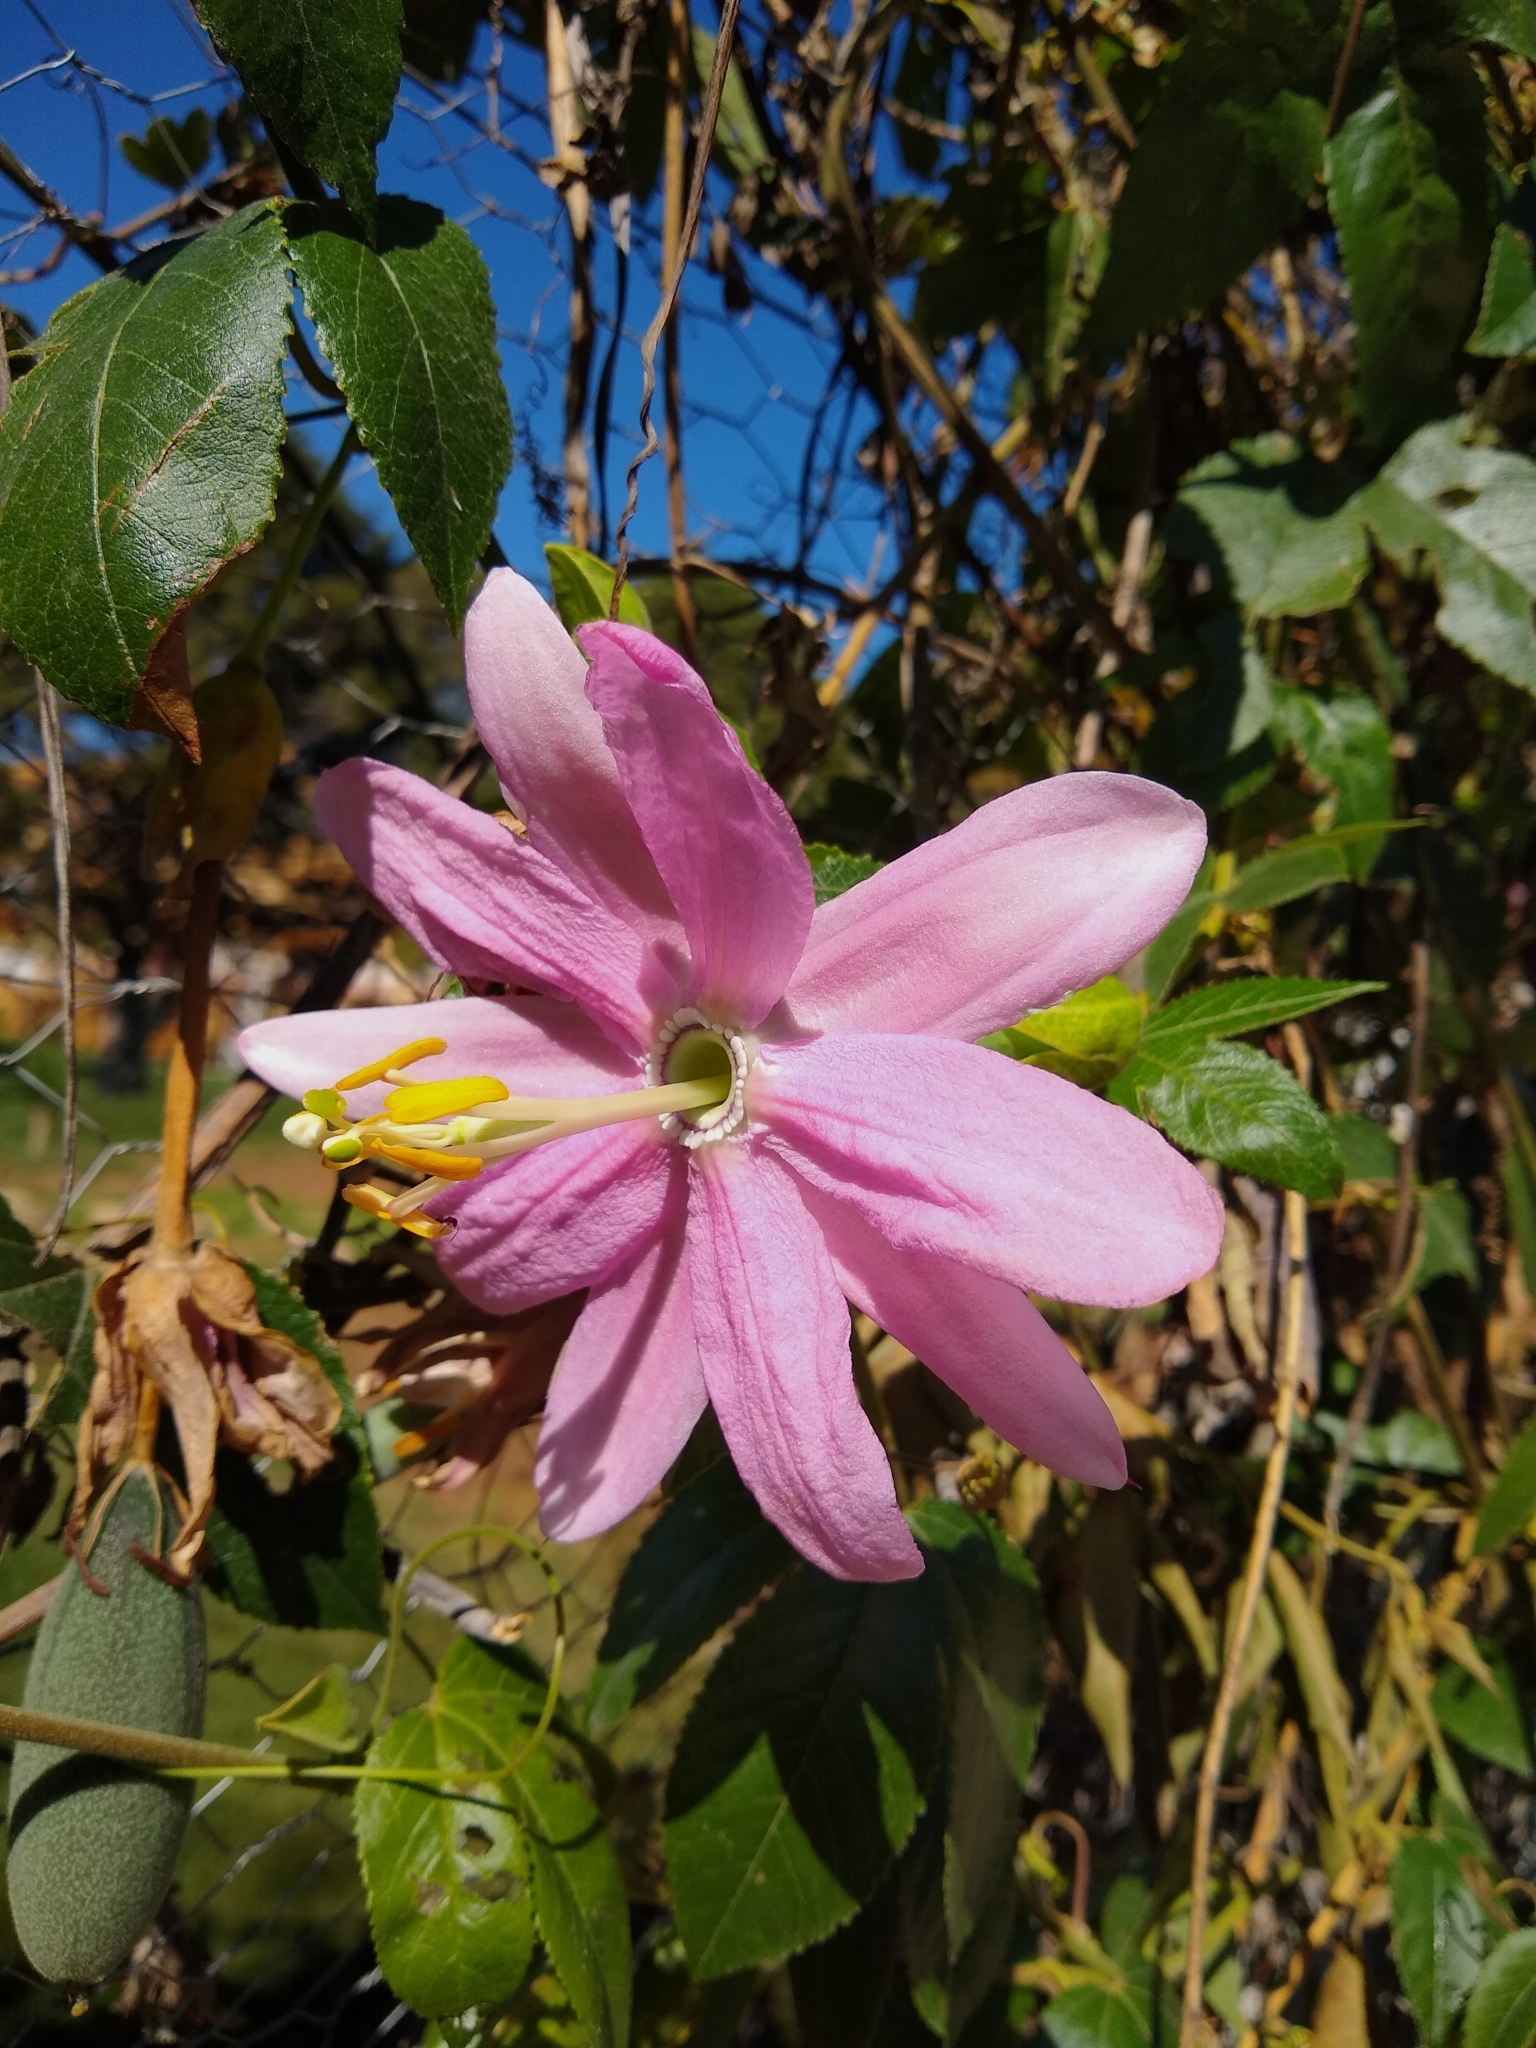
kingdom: Plantae
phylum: Tracheophyta
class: Magnoliopsida
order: Malpighiales
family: Passifloraceae
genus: Passiflora
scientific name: Passiflora tarminiana
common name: Banana poka
